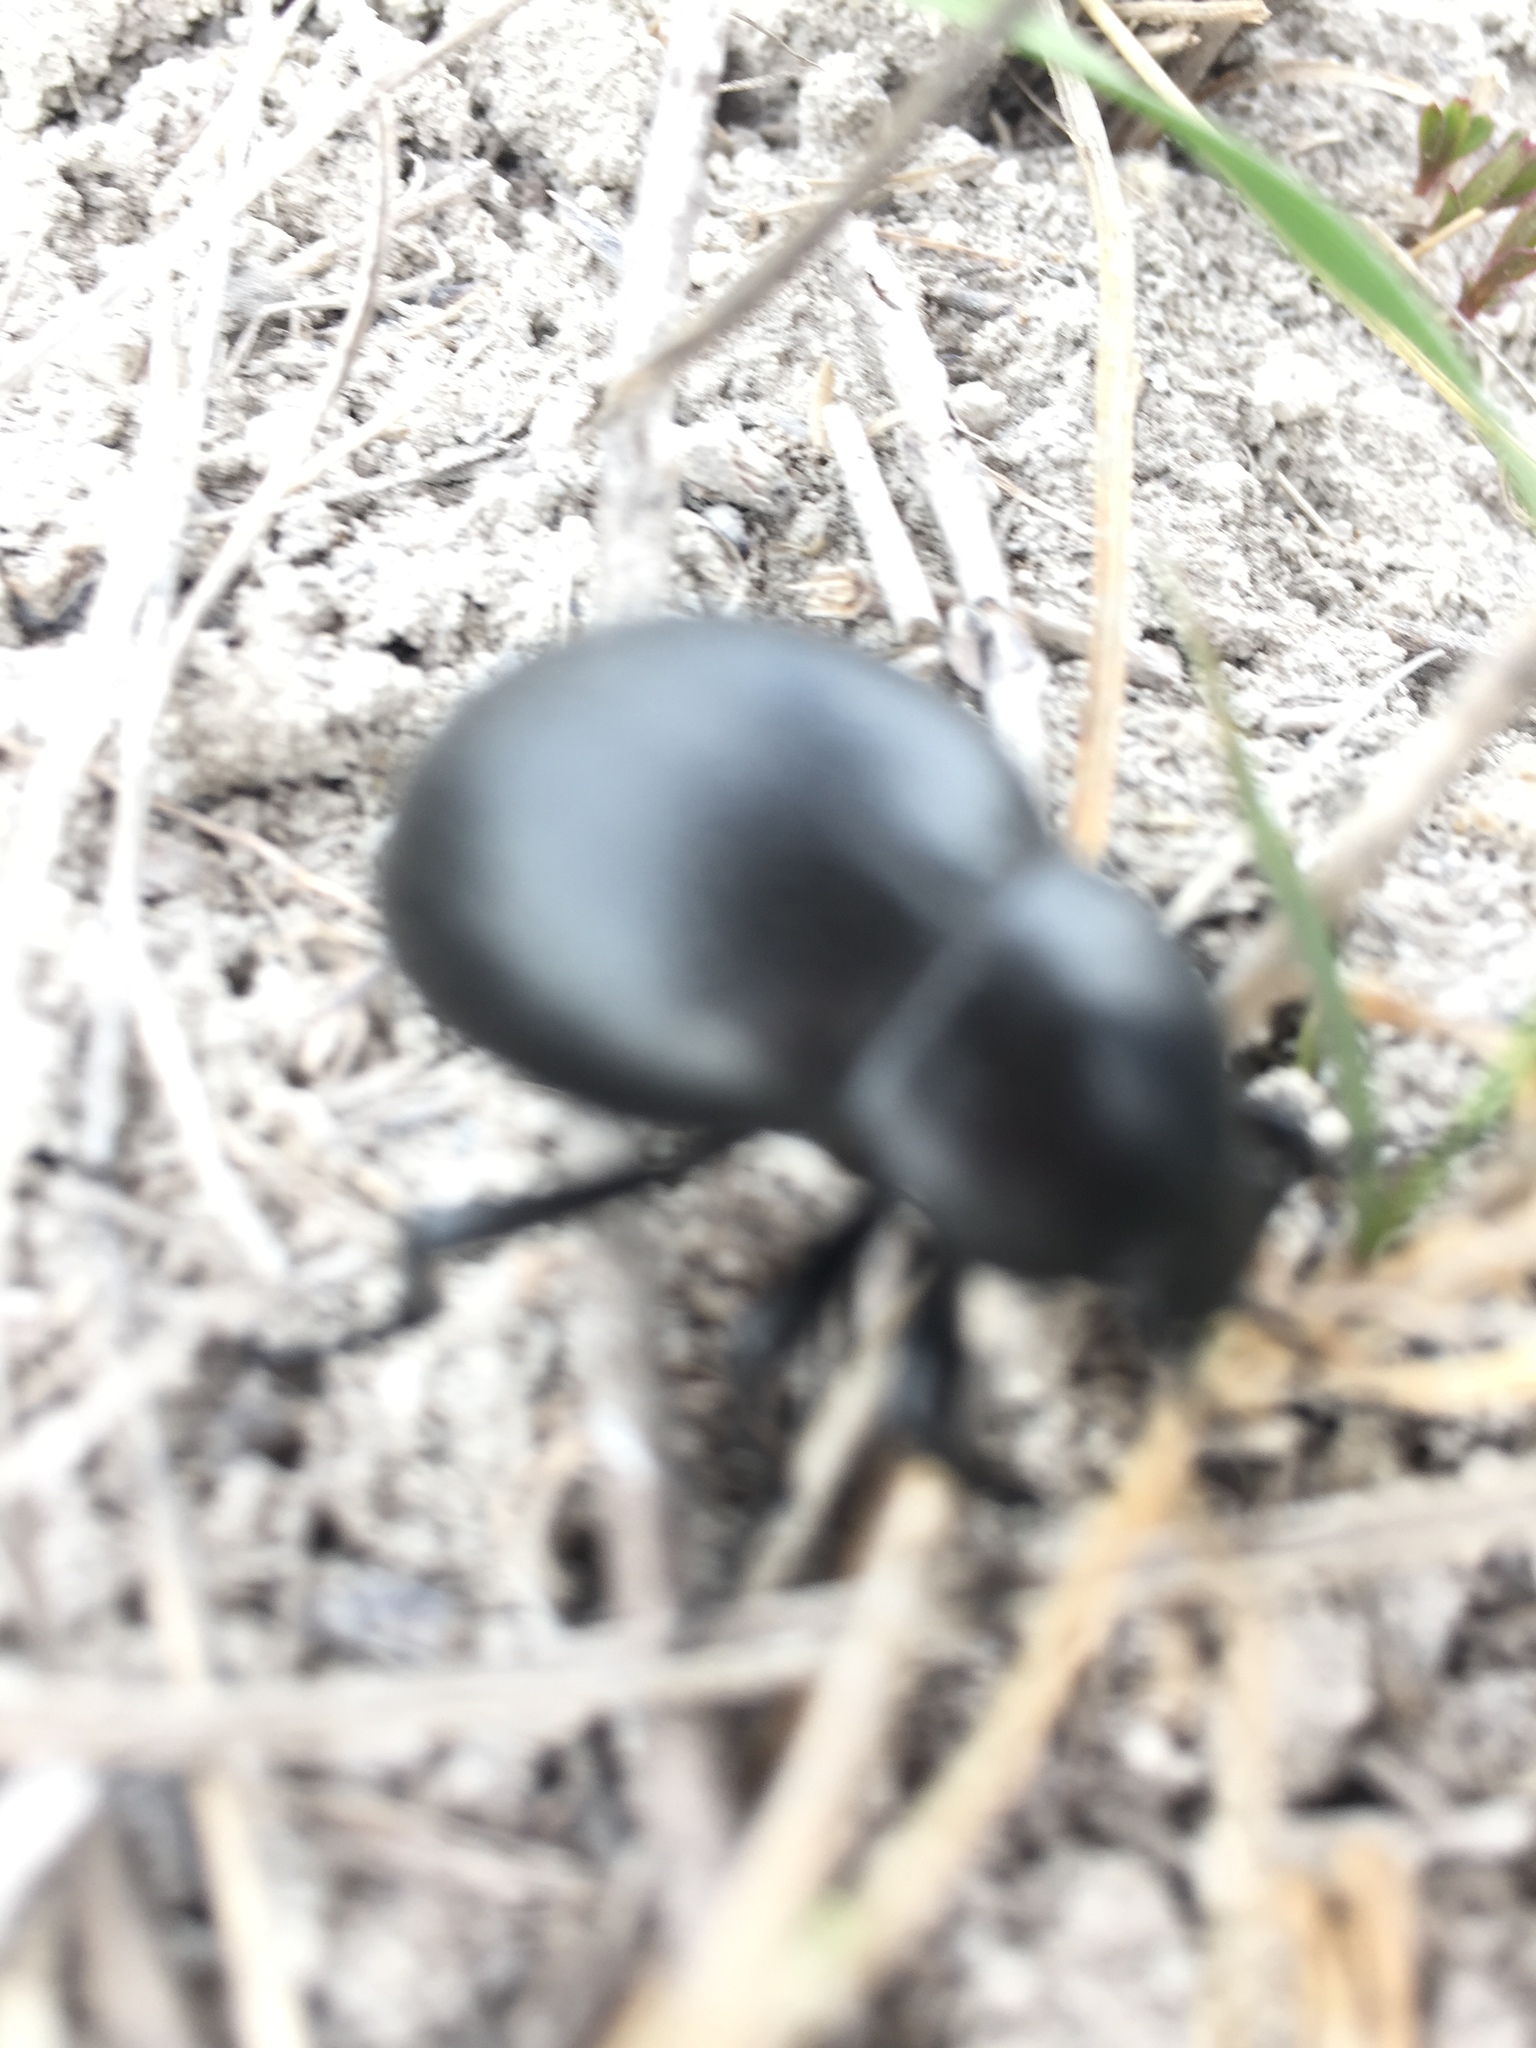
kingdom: Animalia
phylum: Arthropoda
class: Insecta
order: Coleoptera
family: Chrysomelidae
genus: Timarcha
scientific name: Timarcha tenebricosa
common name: Bloody-nosed beetle
